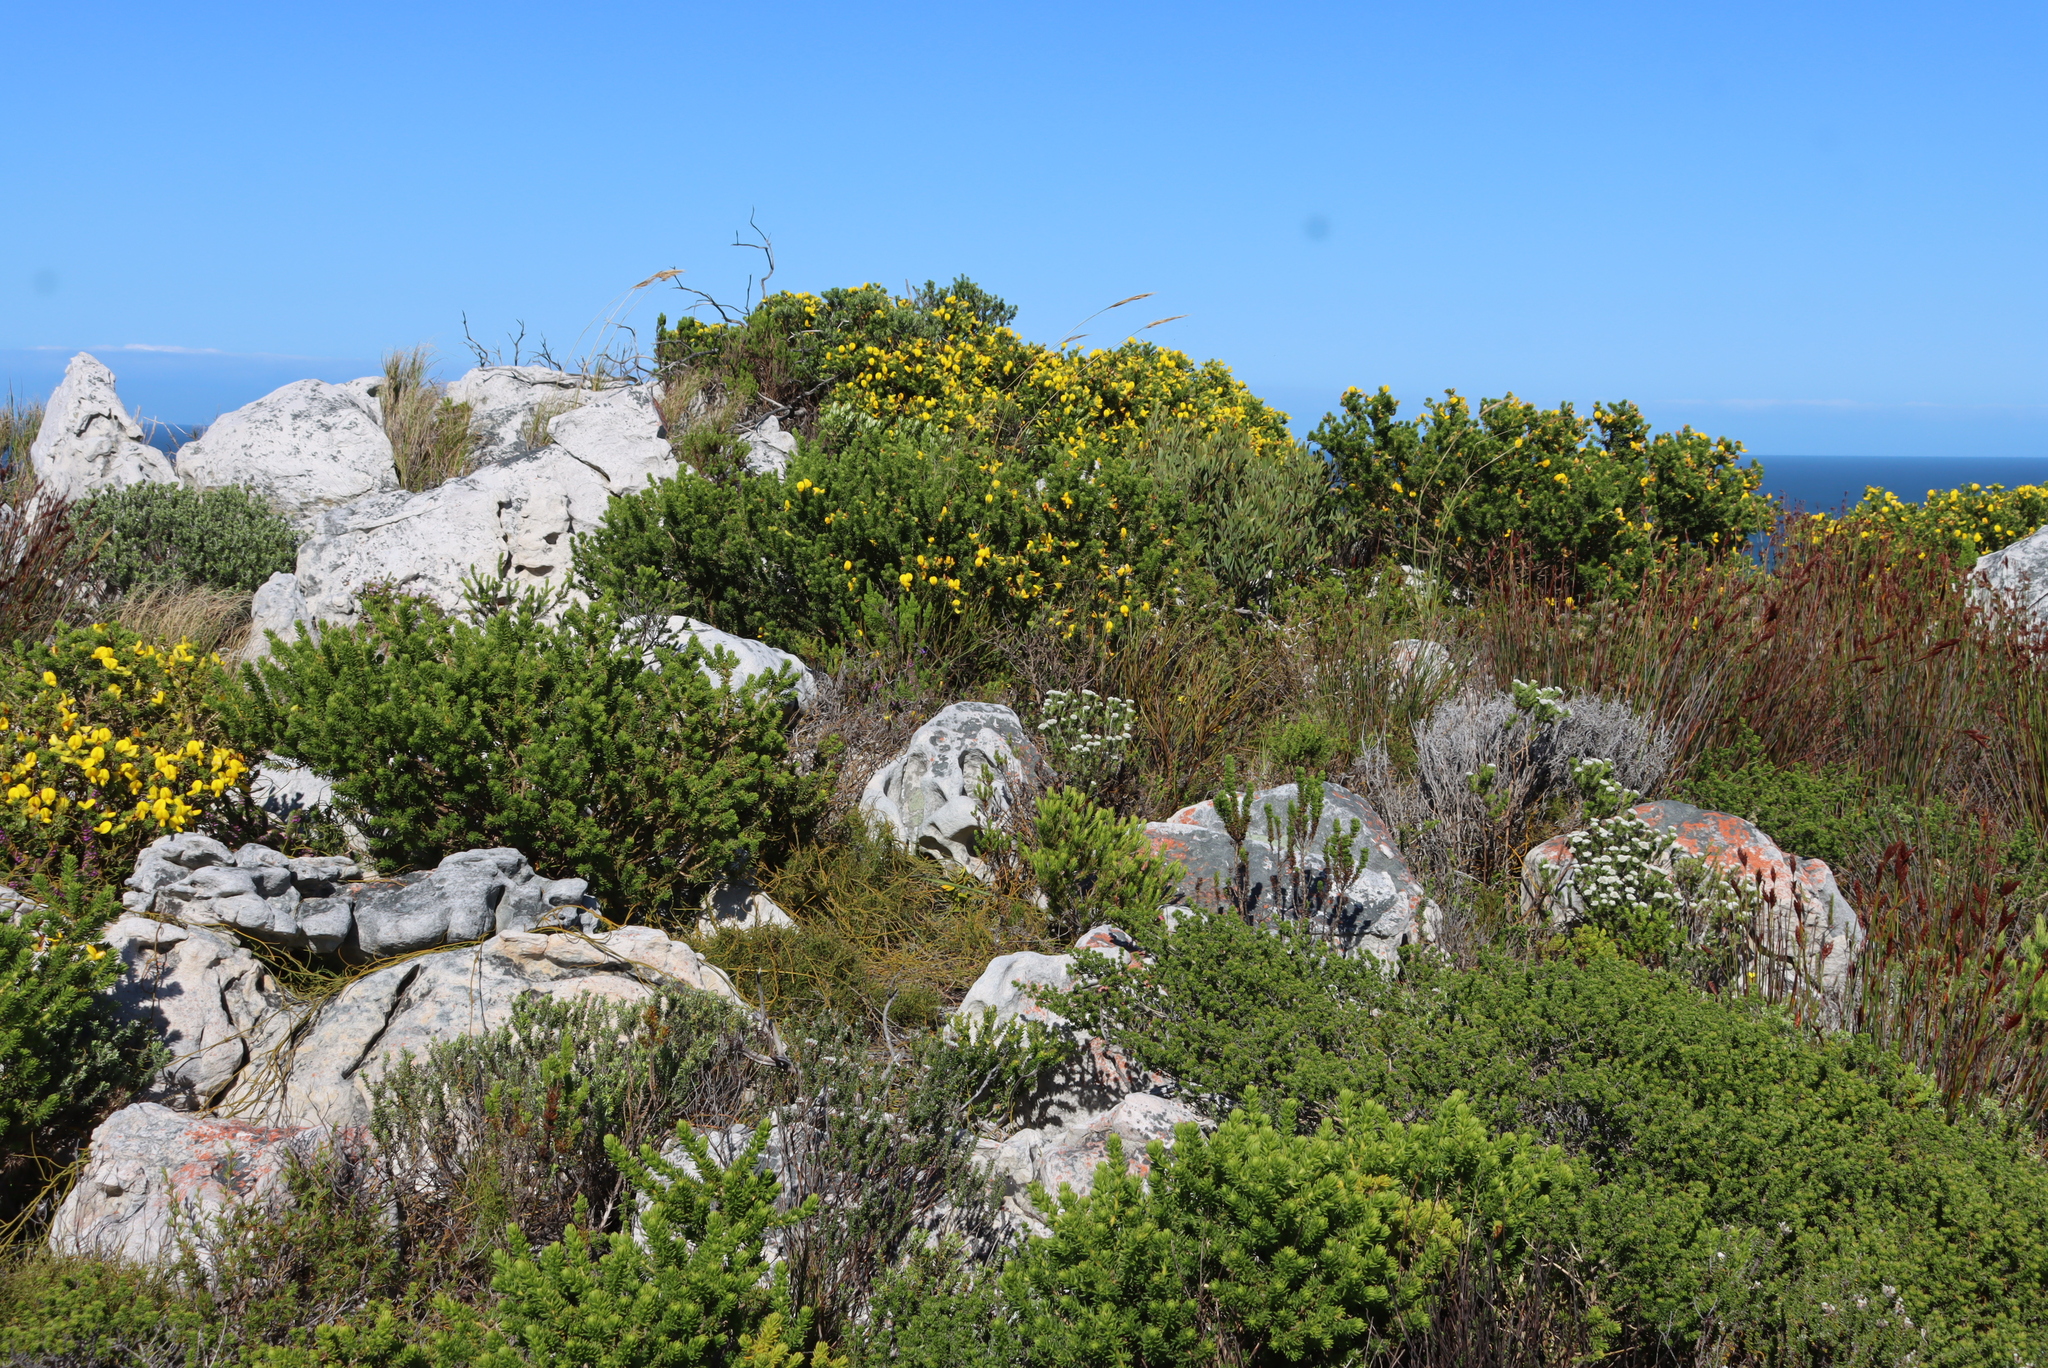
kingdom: Plantae
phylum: Tracheophyta
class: Magnoliopsida
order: Fabales
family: Fabaceae
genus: Aspalathus
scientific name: Aspalathus capensis
